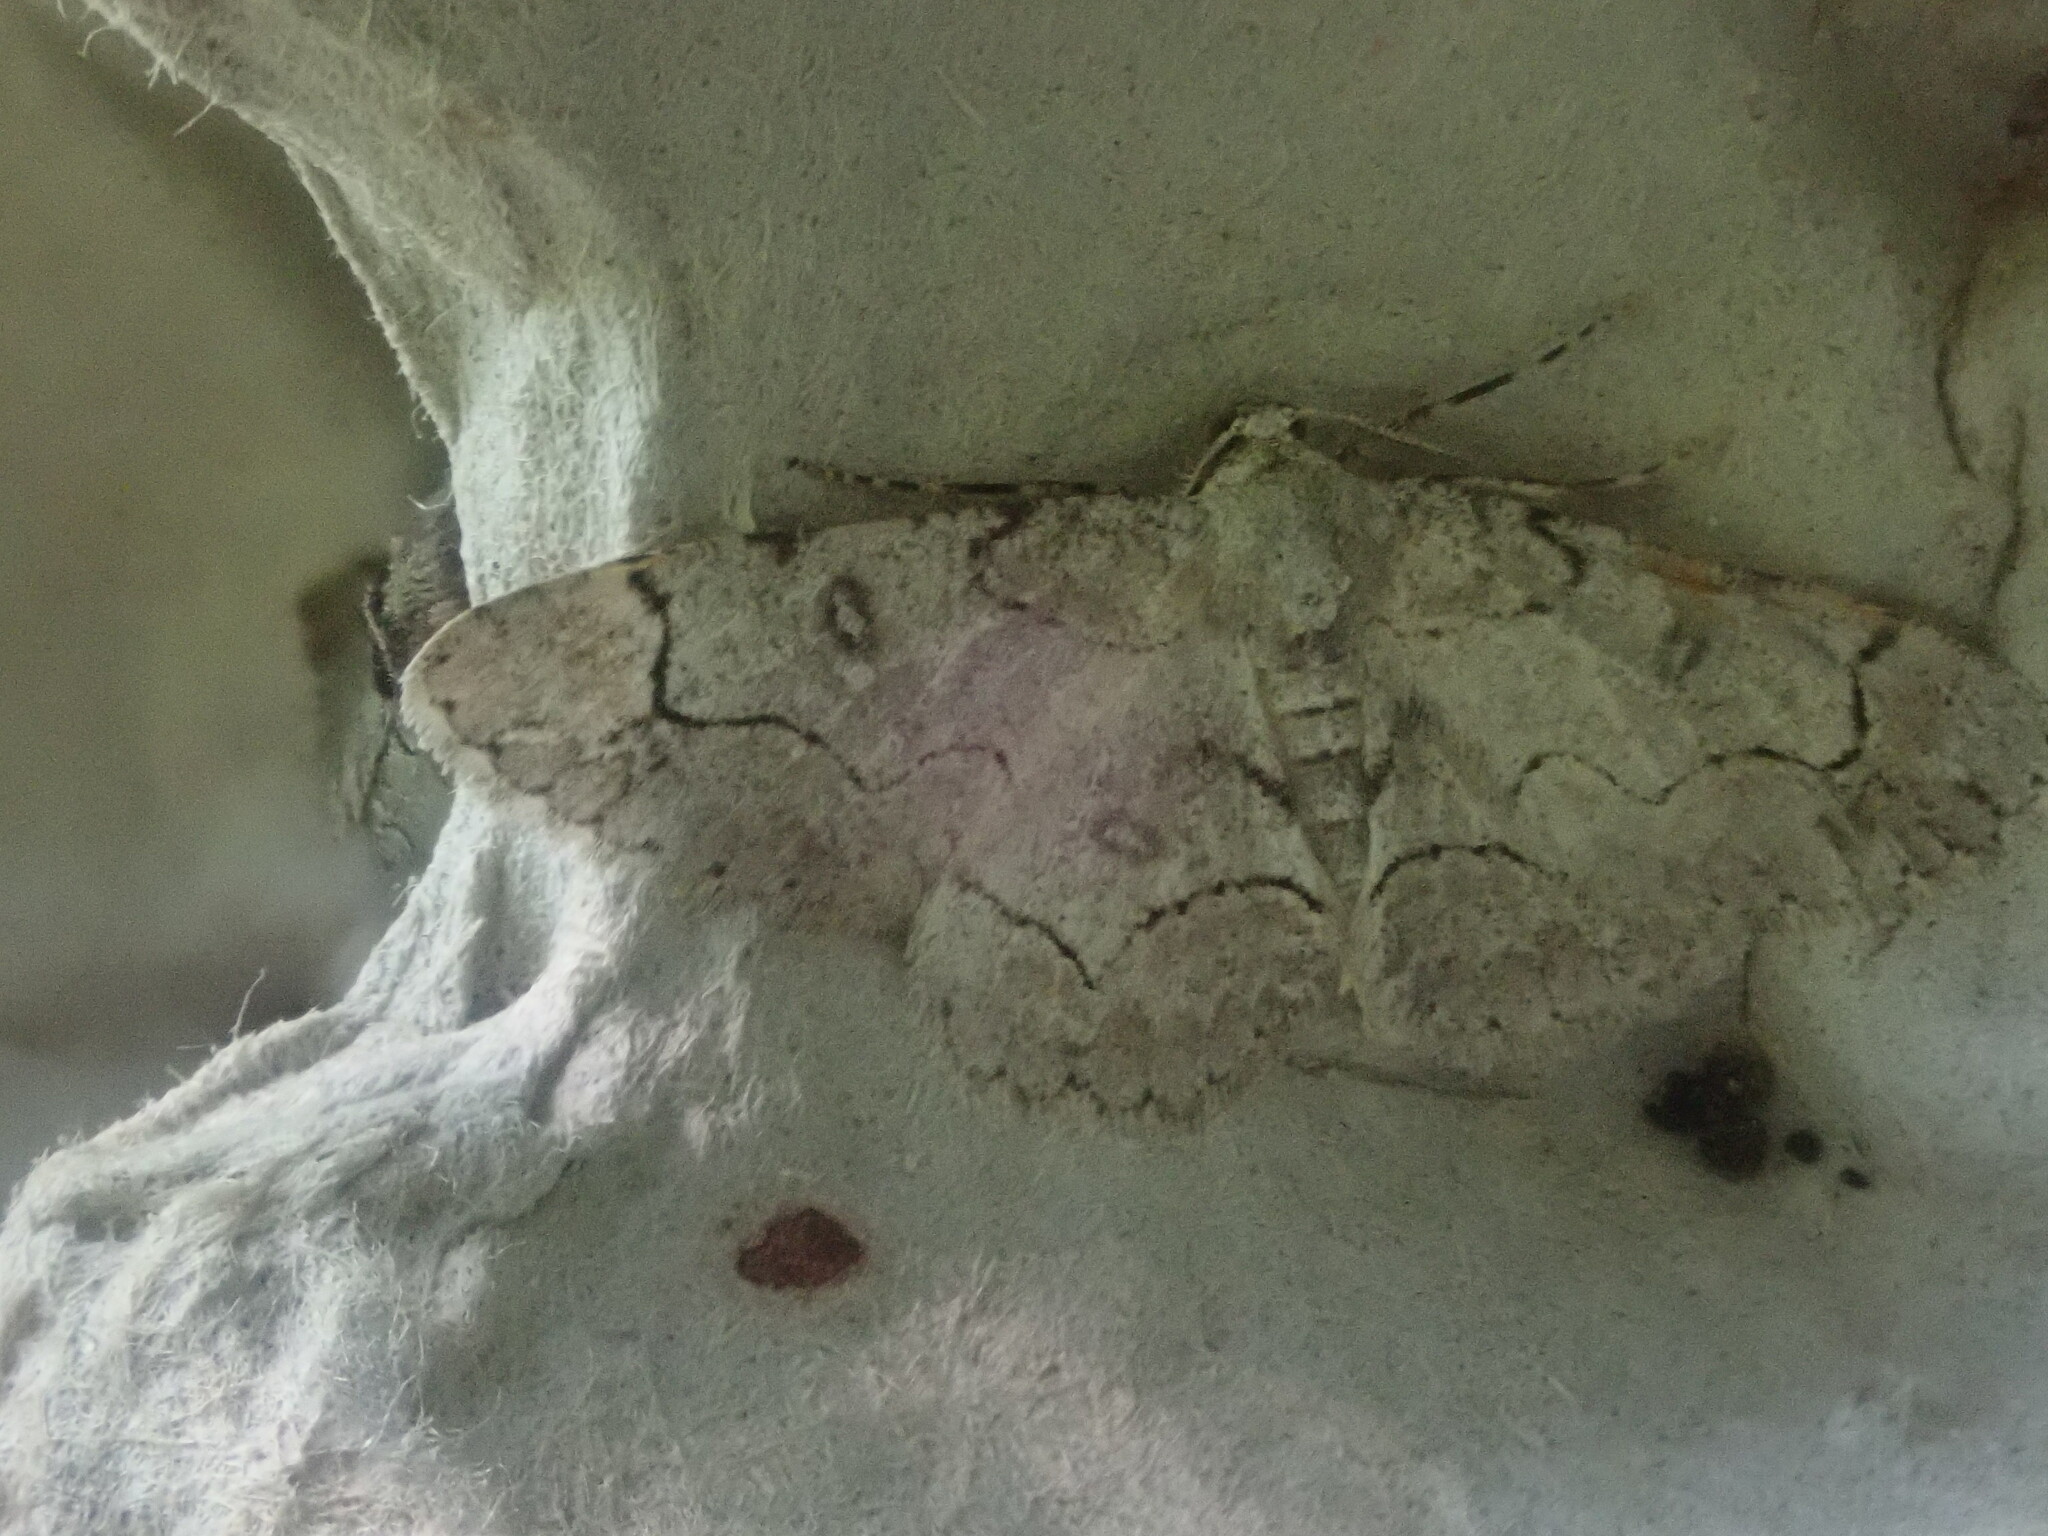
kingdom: Animalia
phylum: Arthropoda
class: Insecta
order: Lepidoptera
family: Geometridae
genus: Iridopsis
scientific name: Iridopsis larvaria
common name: Bent-line gray
